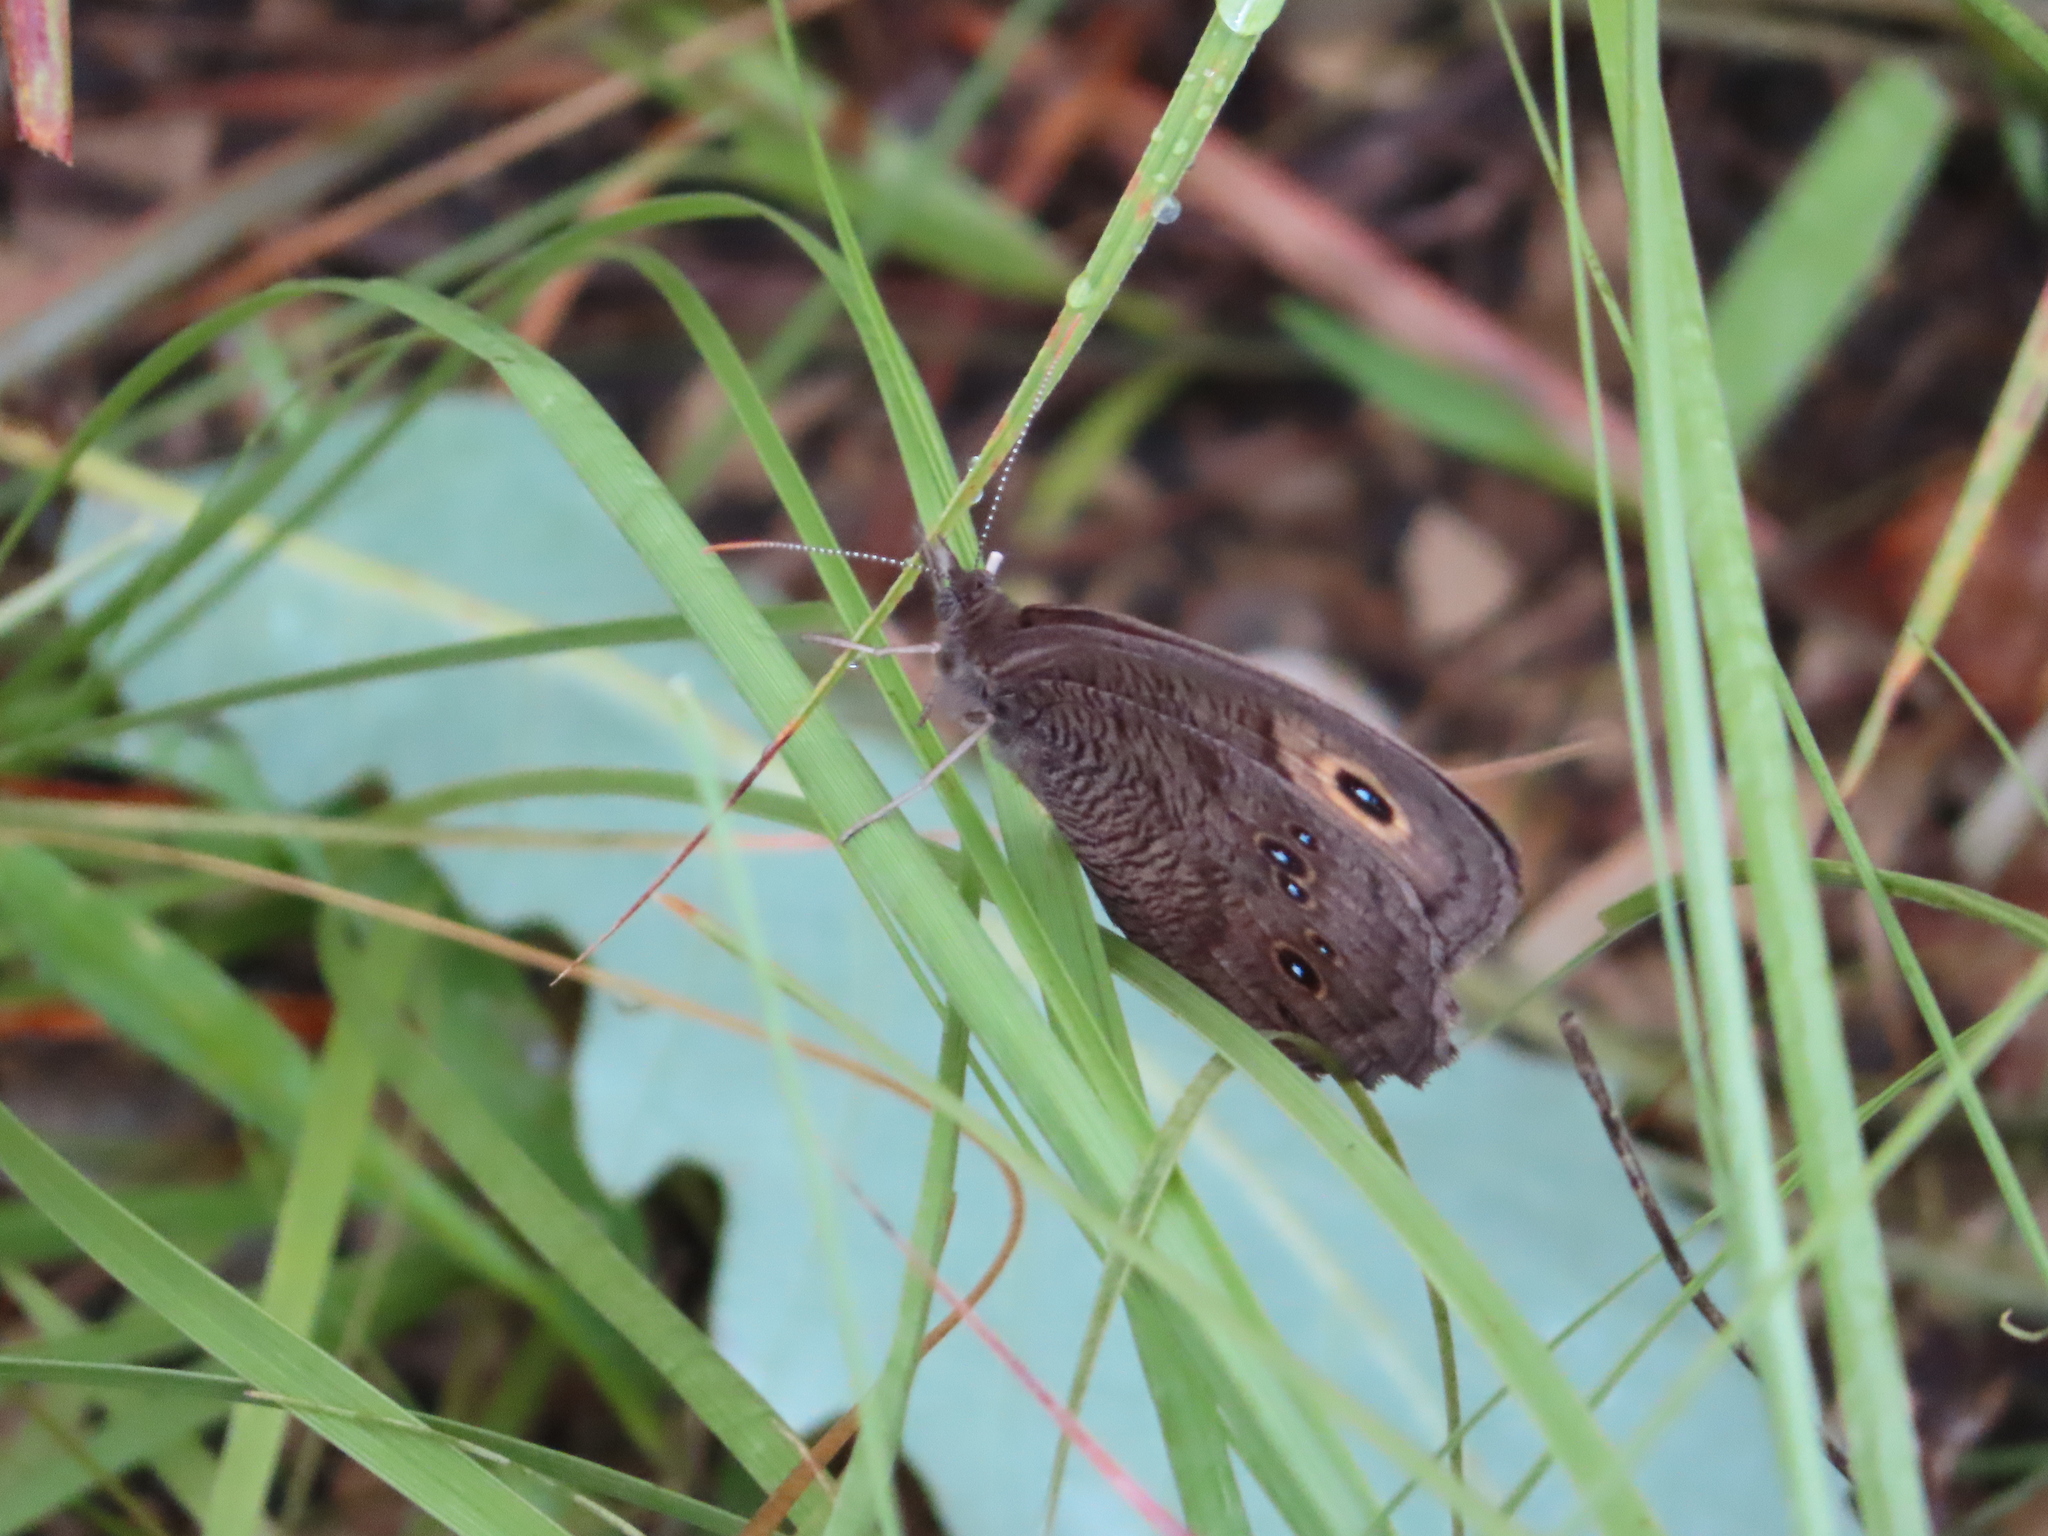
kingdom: Animalia
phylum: Arthropoda
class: Insecta
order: Lepidoptera
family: Nymphalidae
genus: Cercyonis
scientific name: Cercyonis pegala
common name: Common wood-nymph
